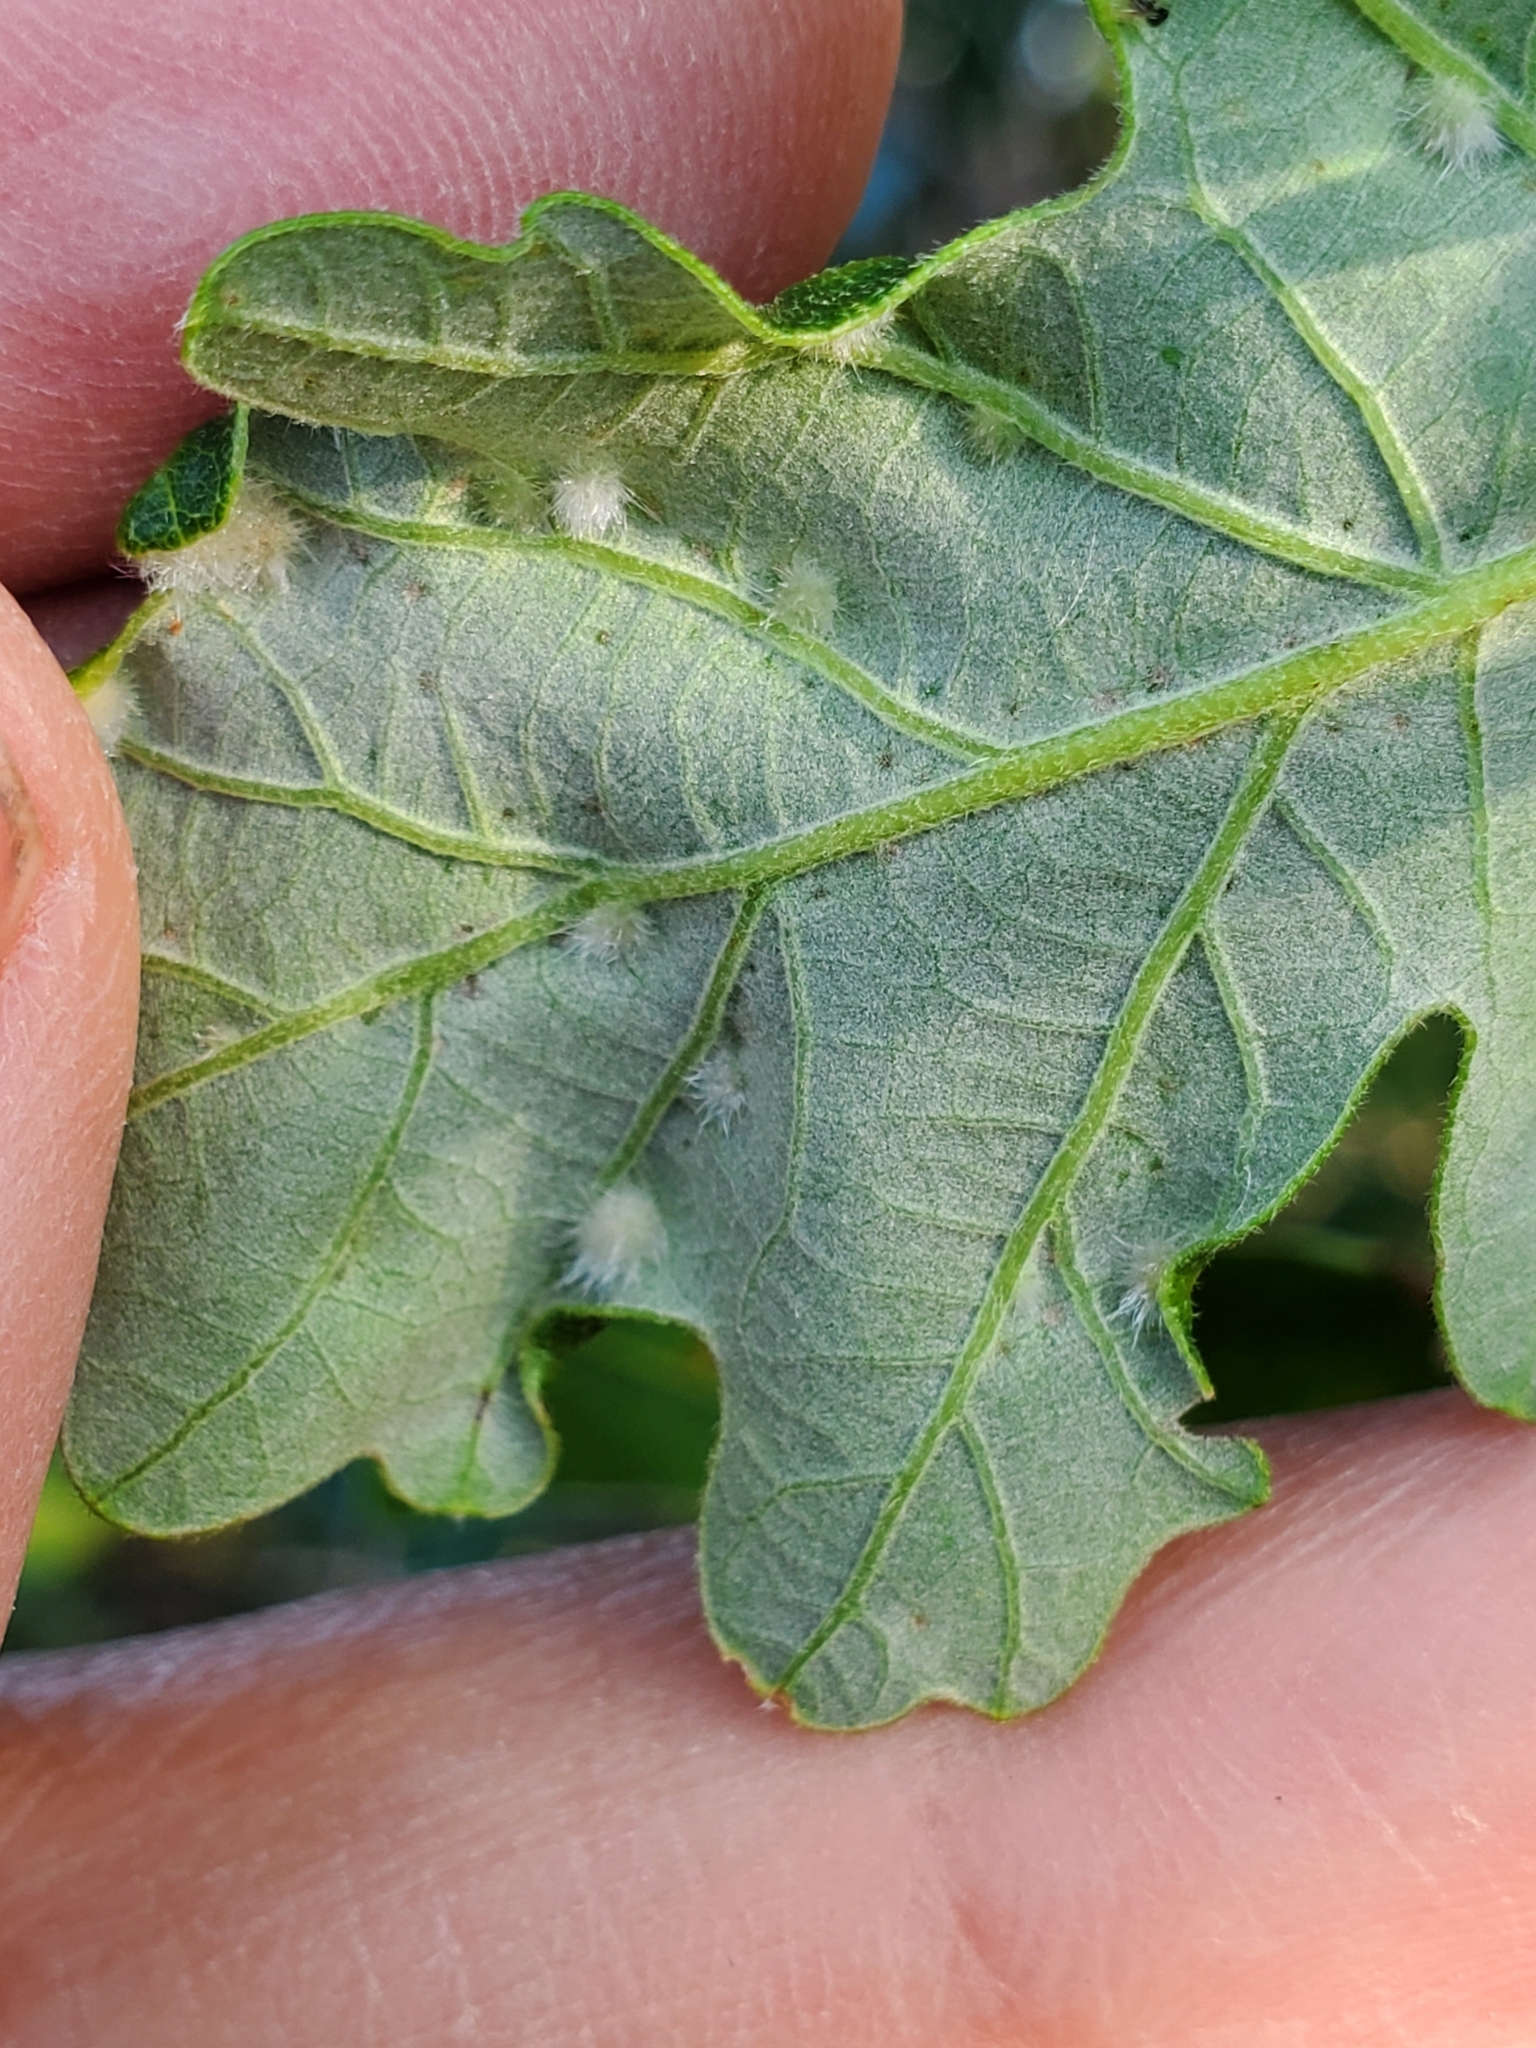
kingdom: Animalia
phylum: Arthropoda
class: Insecta
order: Hymenoptera
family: Cynipidae
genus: Neuroterus
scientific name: Neuroterus quercusverrucarum
